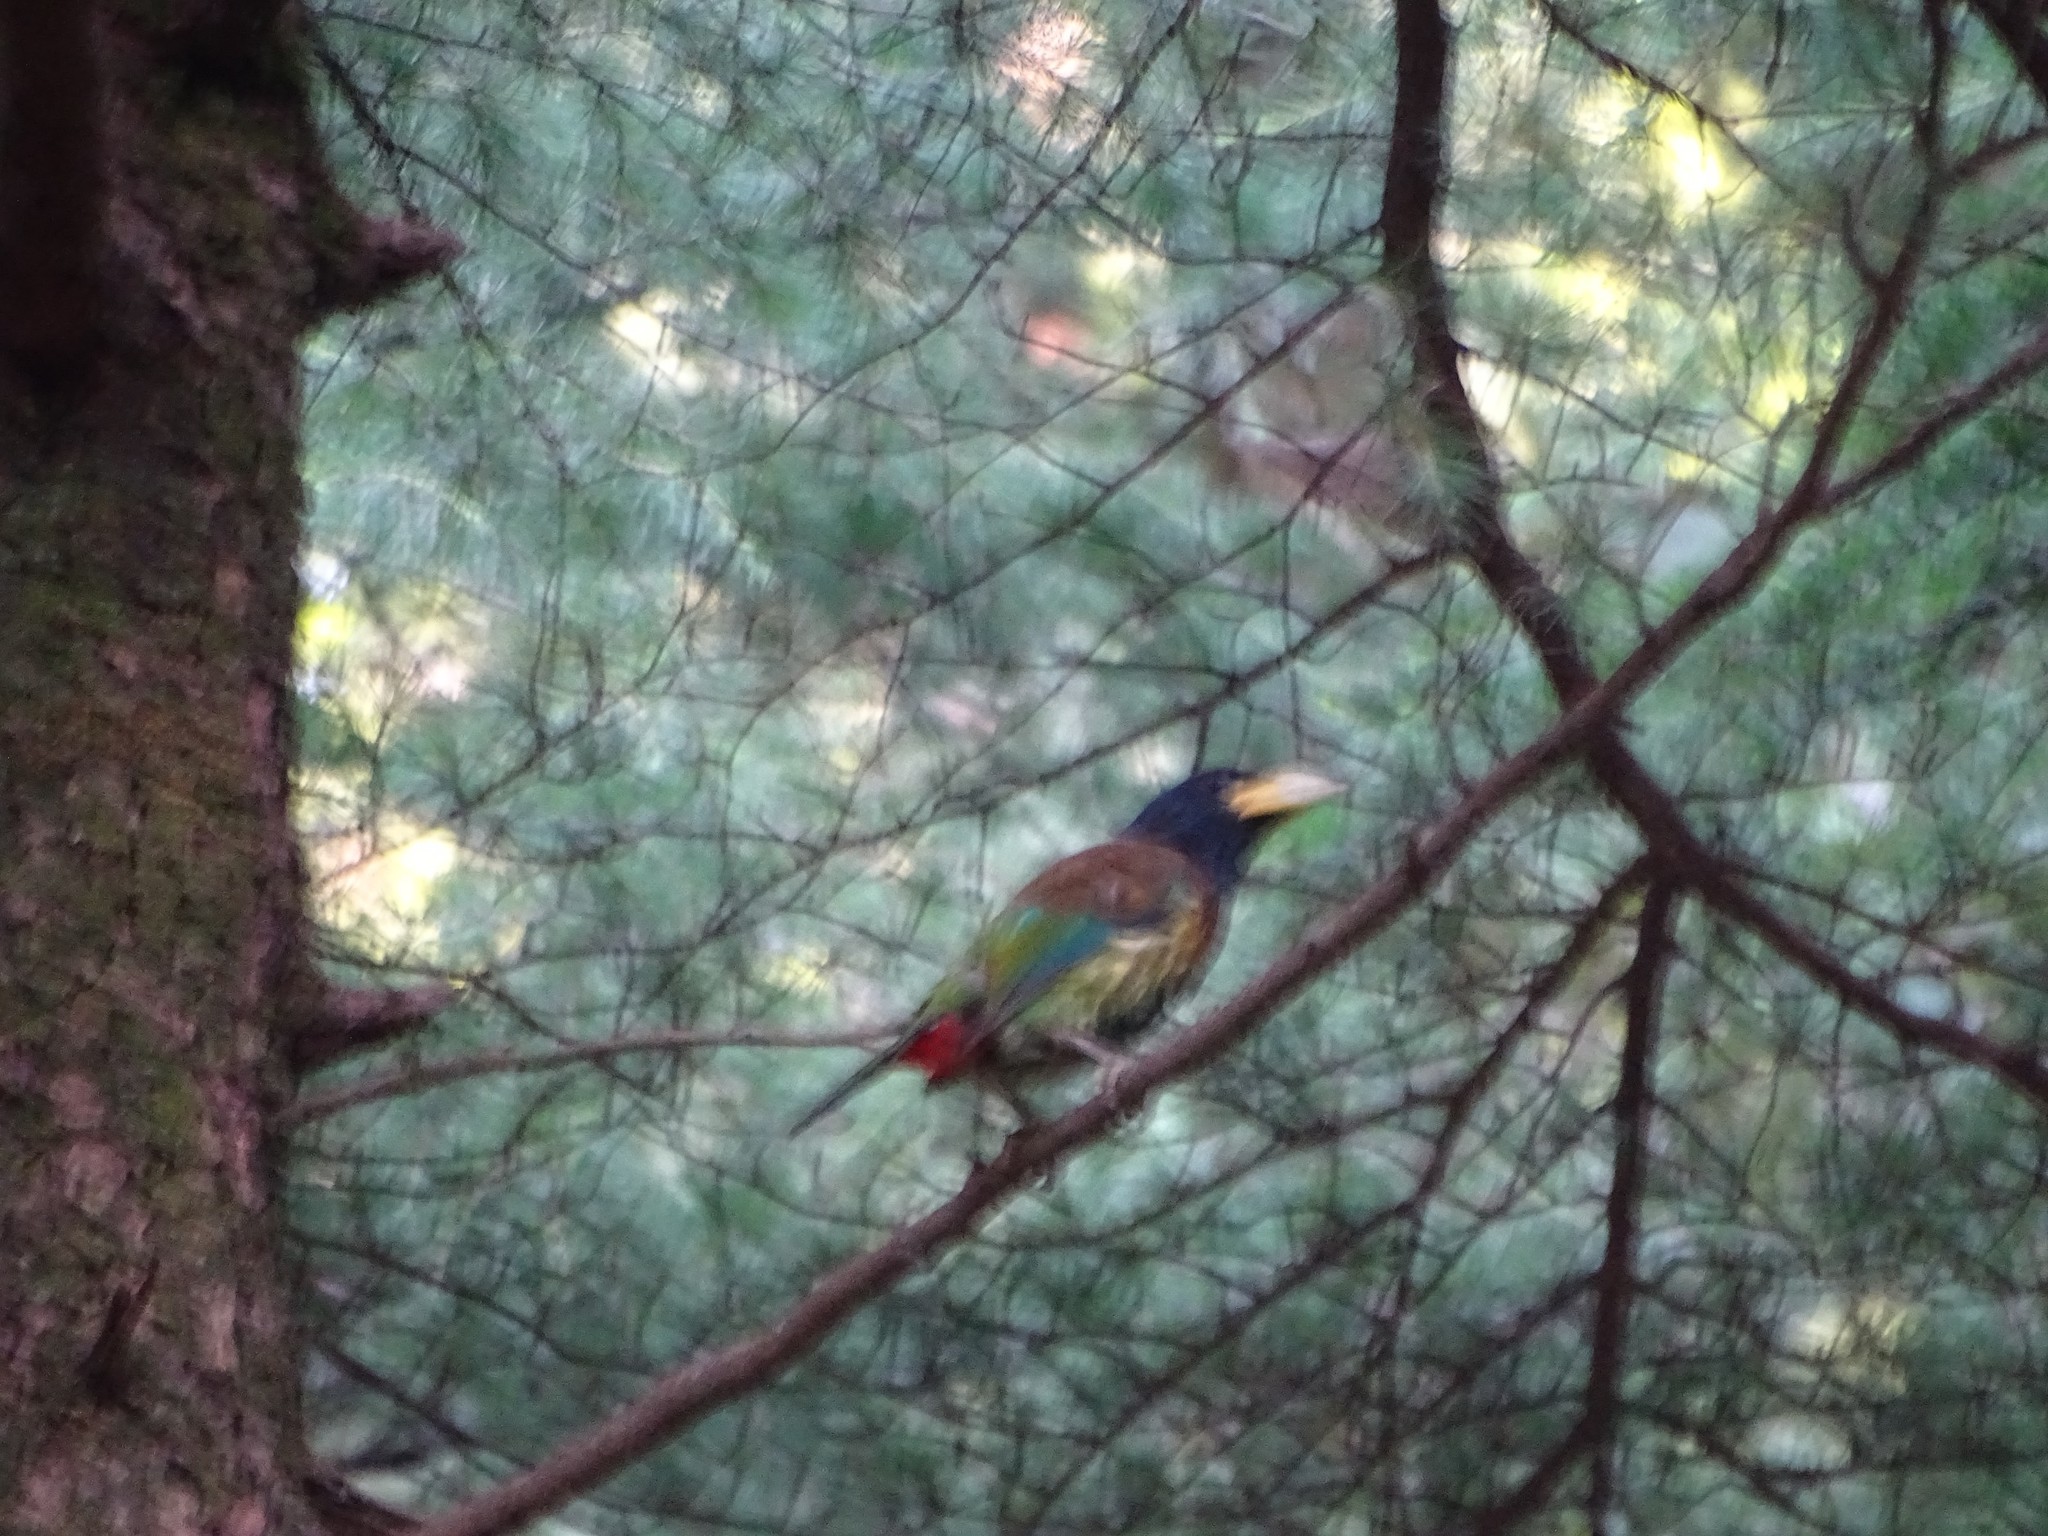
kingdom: Animalia
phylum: Chordata
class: Aves
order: Piciformes
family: Megalaimidae
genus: Psilopogon
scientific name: Psilopogon virens
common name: Great barbet
